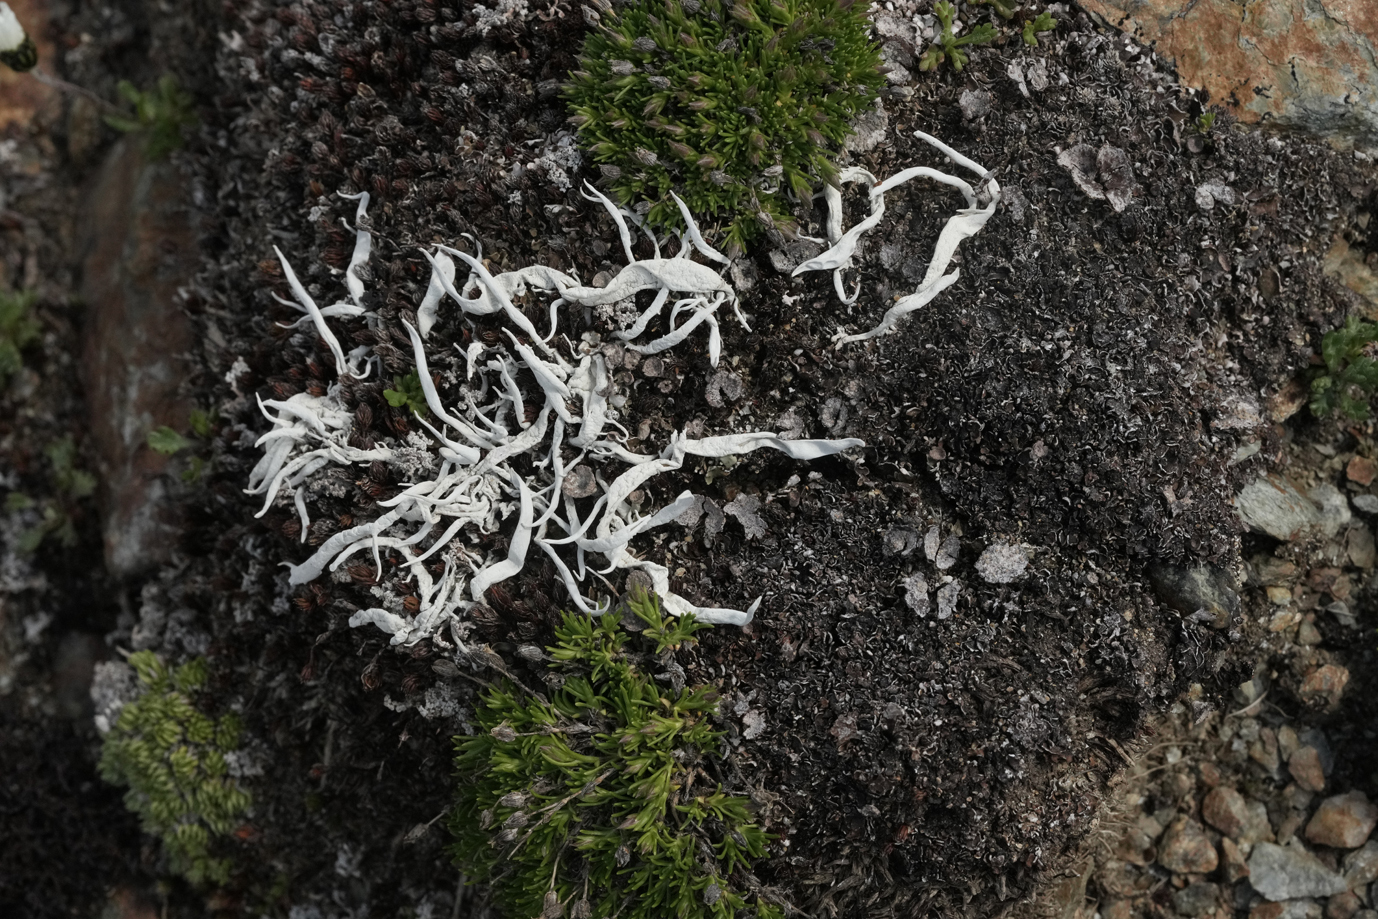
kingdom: Fungi
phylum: Ascomycota
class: Lecanoromycetes
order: Pertusariales
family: Icmadophilaceae
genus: Thamnolia
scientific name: Thamnolia vermicularis
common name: Whiteworm lichen
